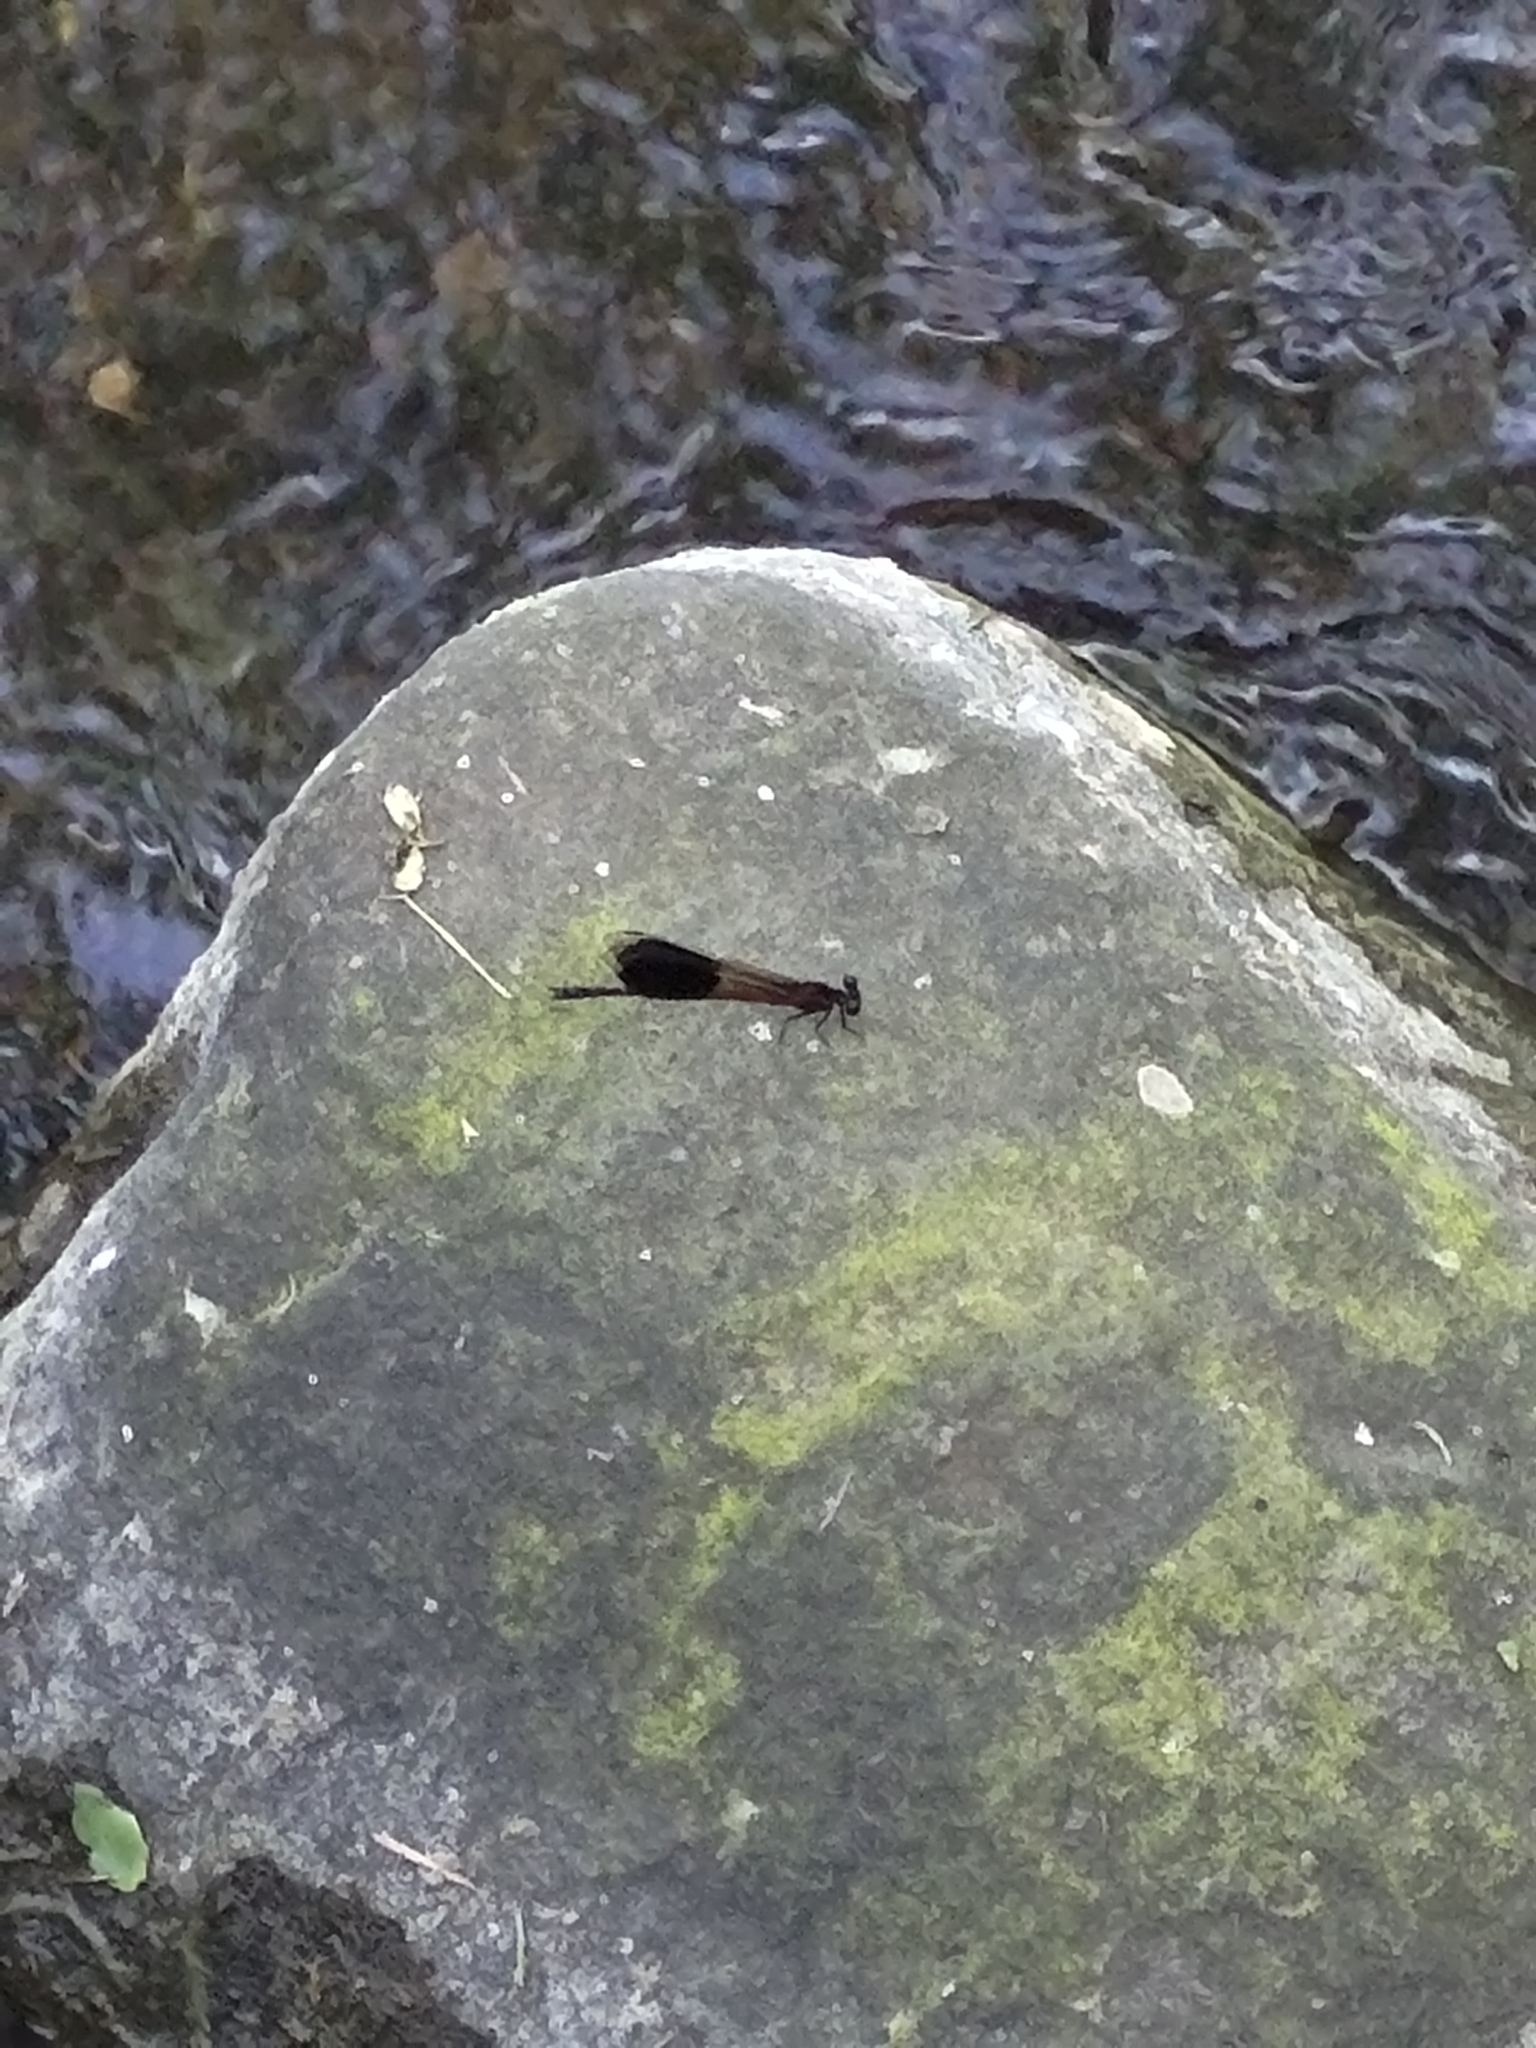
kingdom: Animalia
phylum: Arthropoda
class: Insecta
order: Odonata
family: Euphaeidae
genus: Euphaea
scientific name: Euphaea formosa
